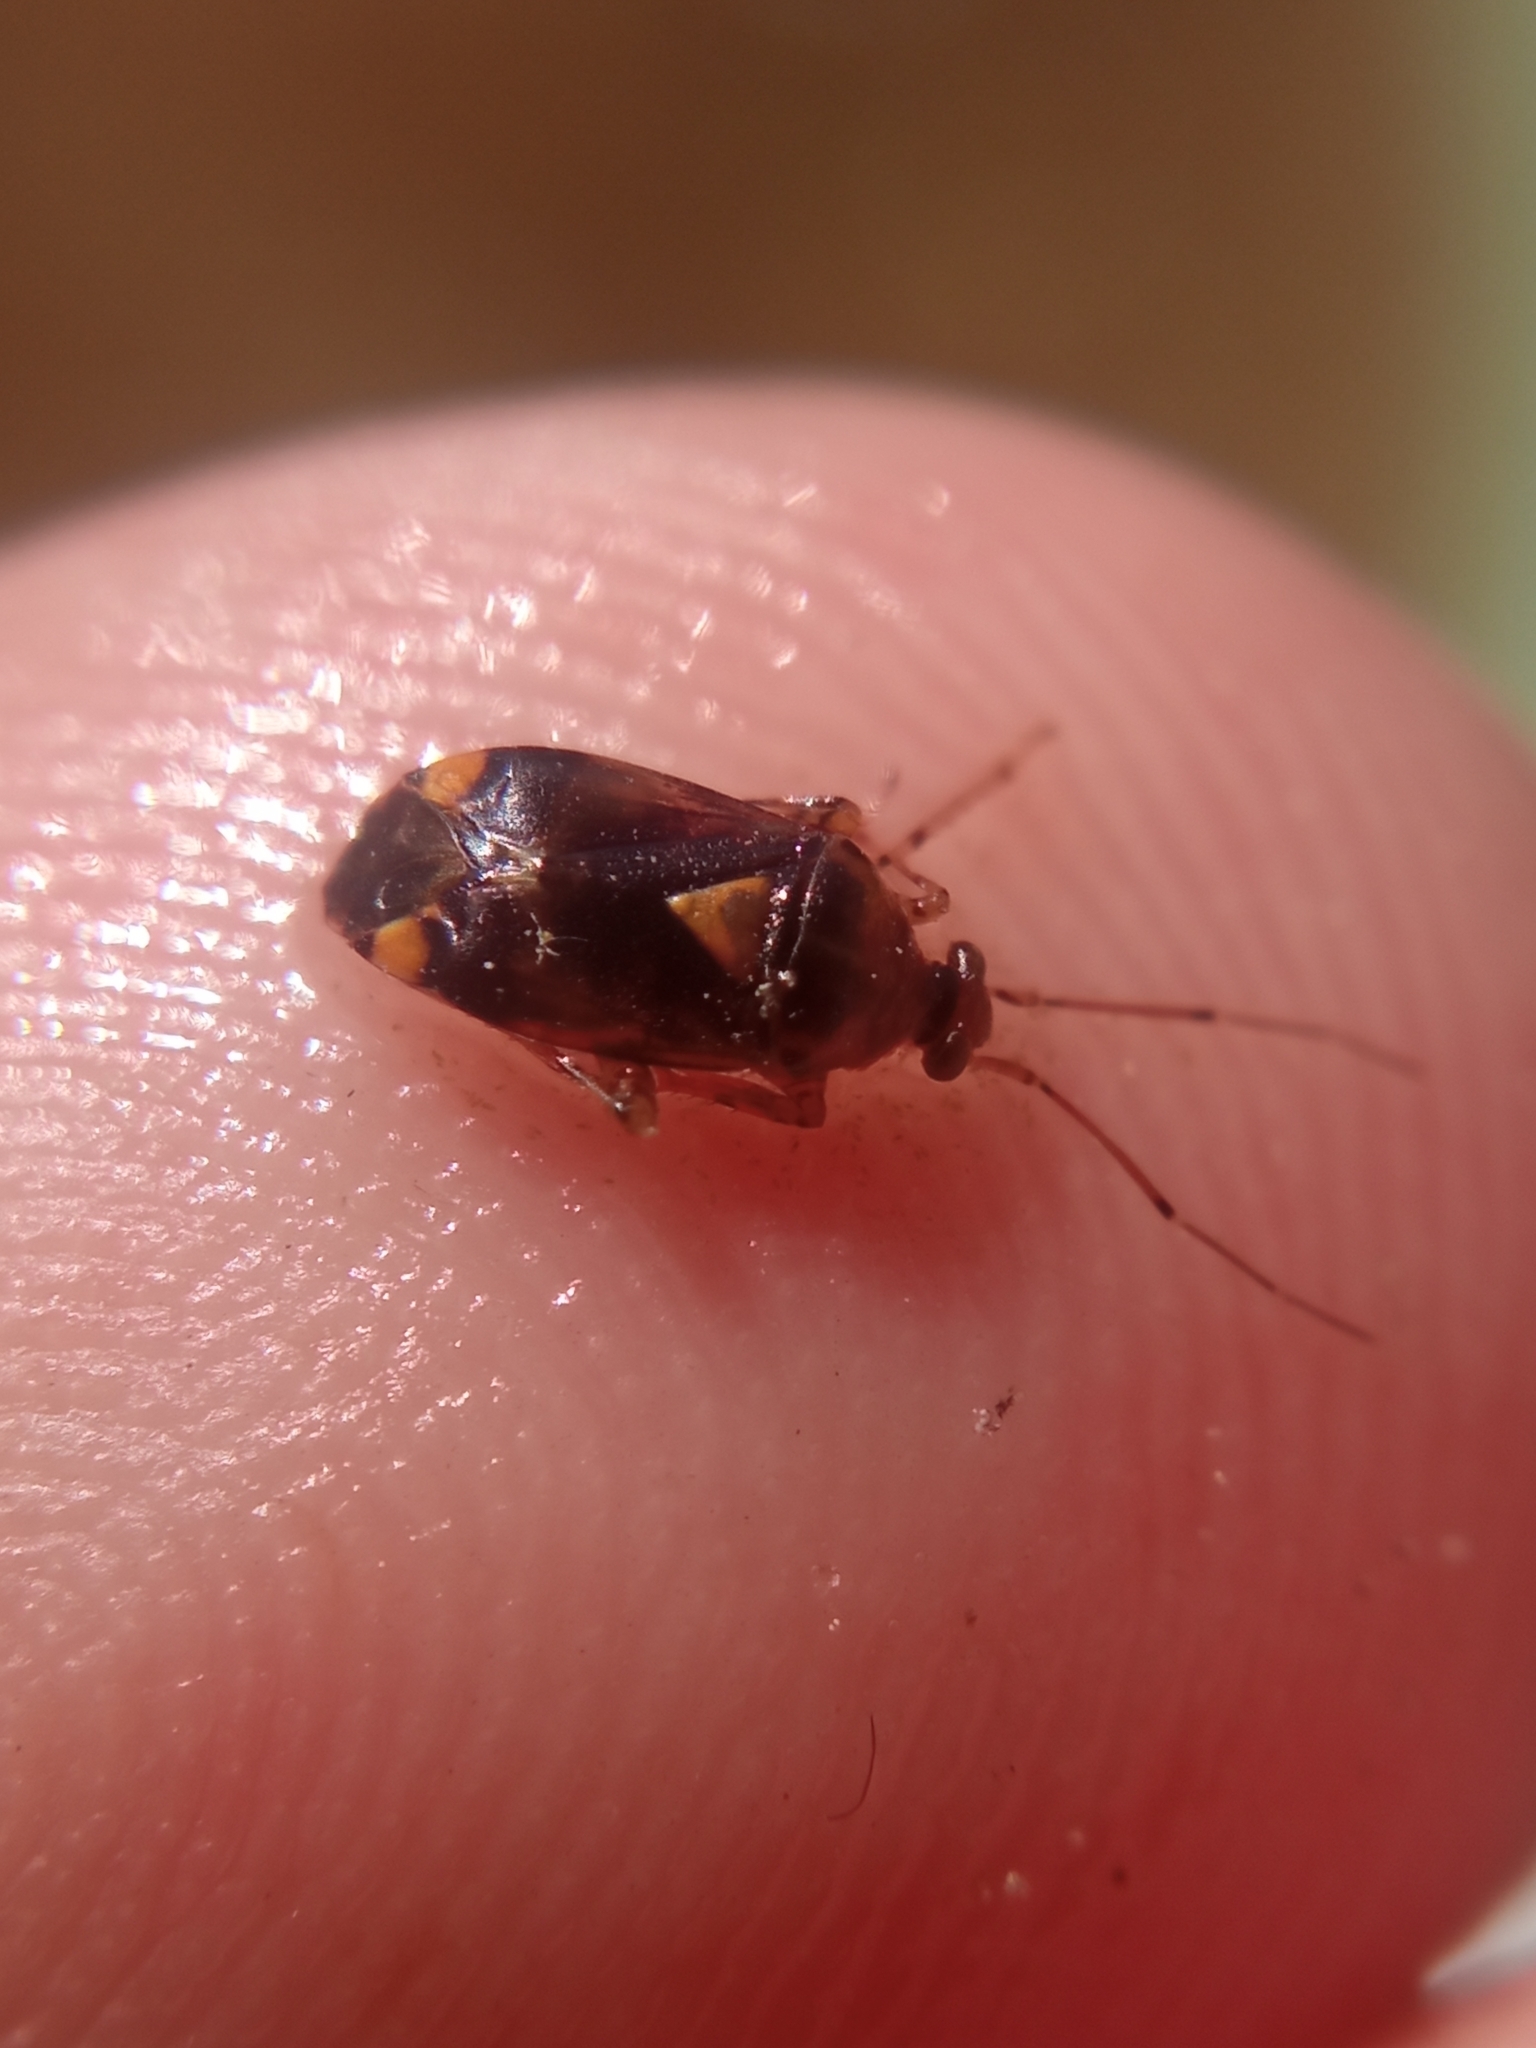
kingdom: Animalia
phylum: Arthropoda
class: Insecta
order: Hemiptera
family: Miridae
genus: Liocoris
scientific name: Liocoris tripustulatus
